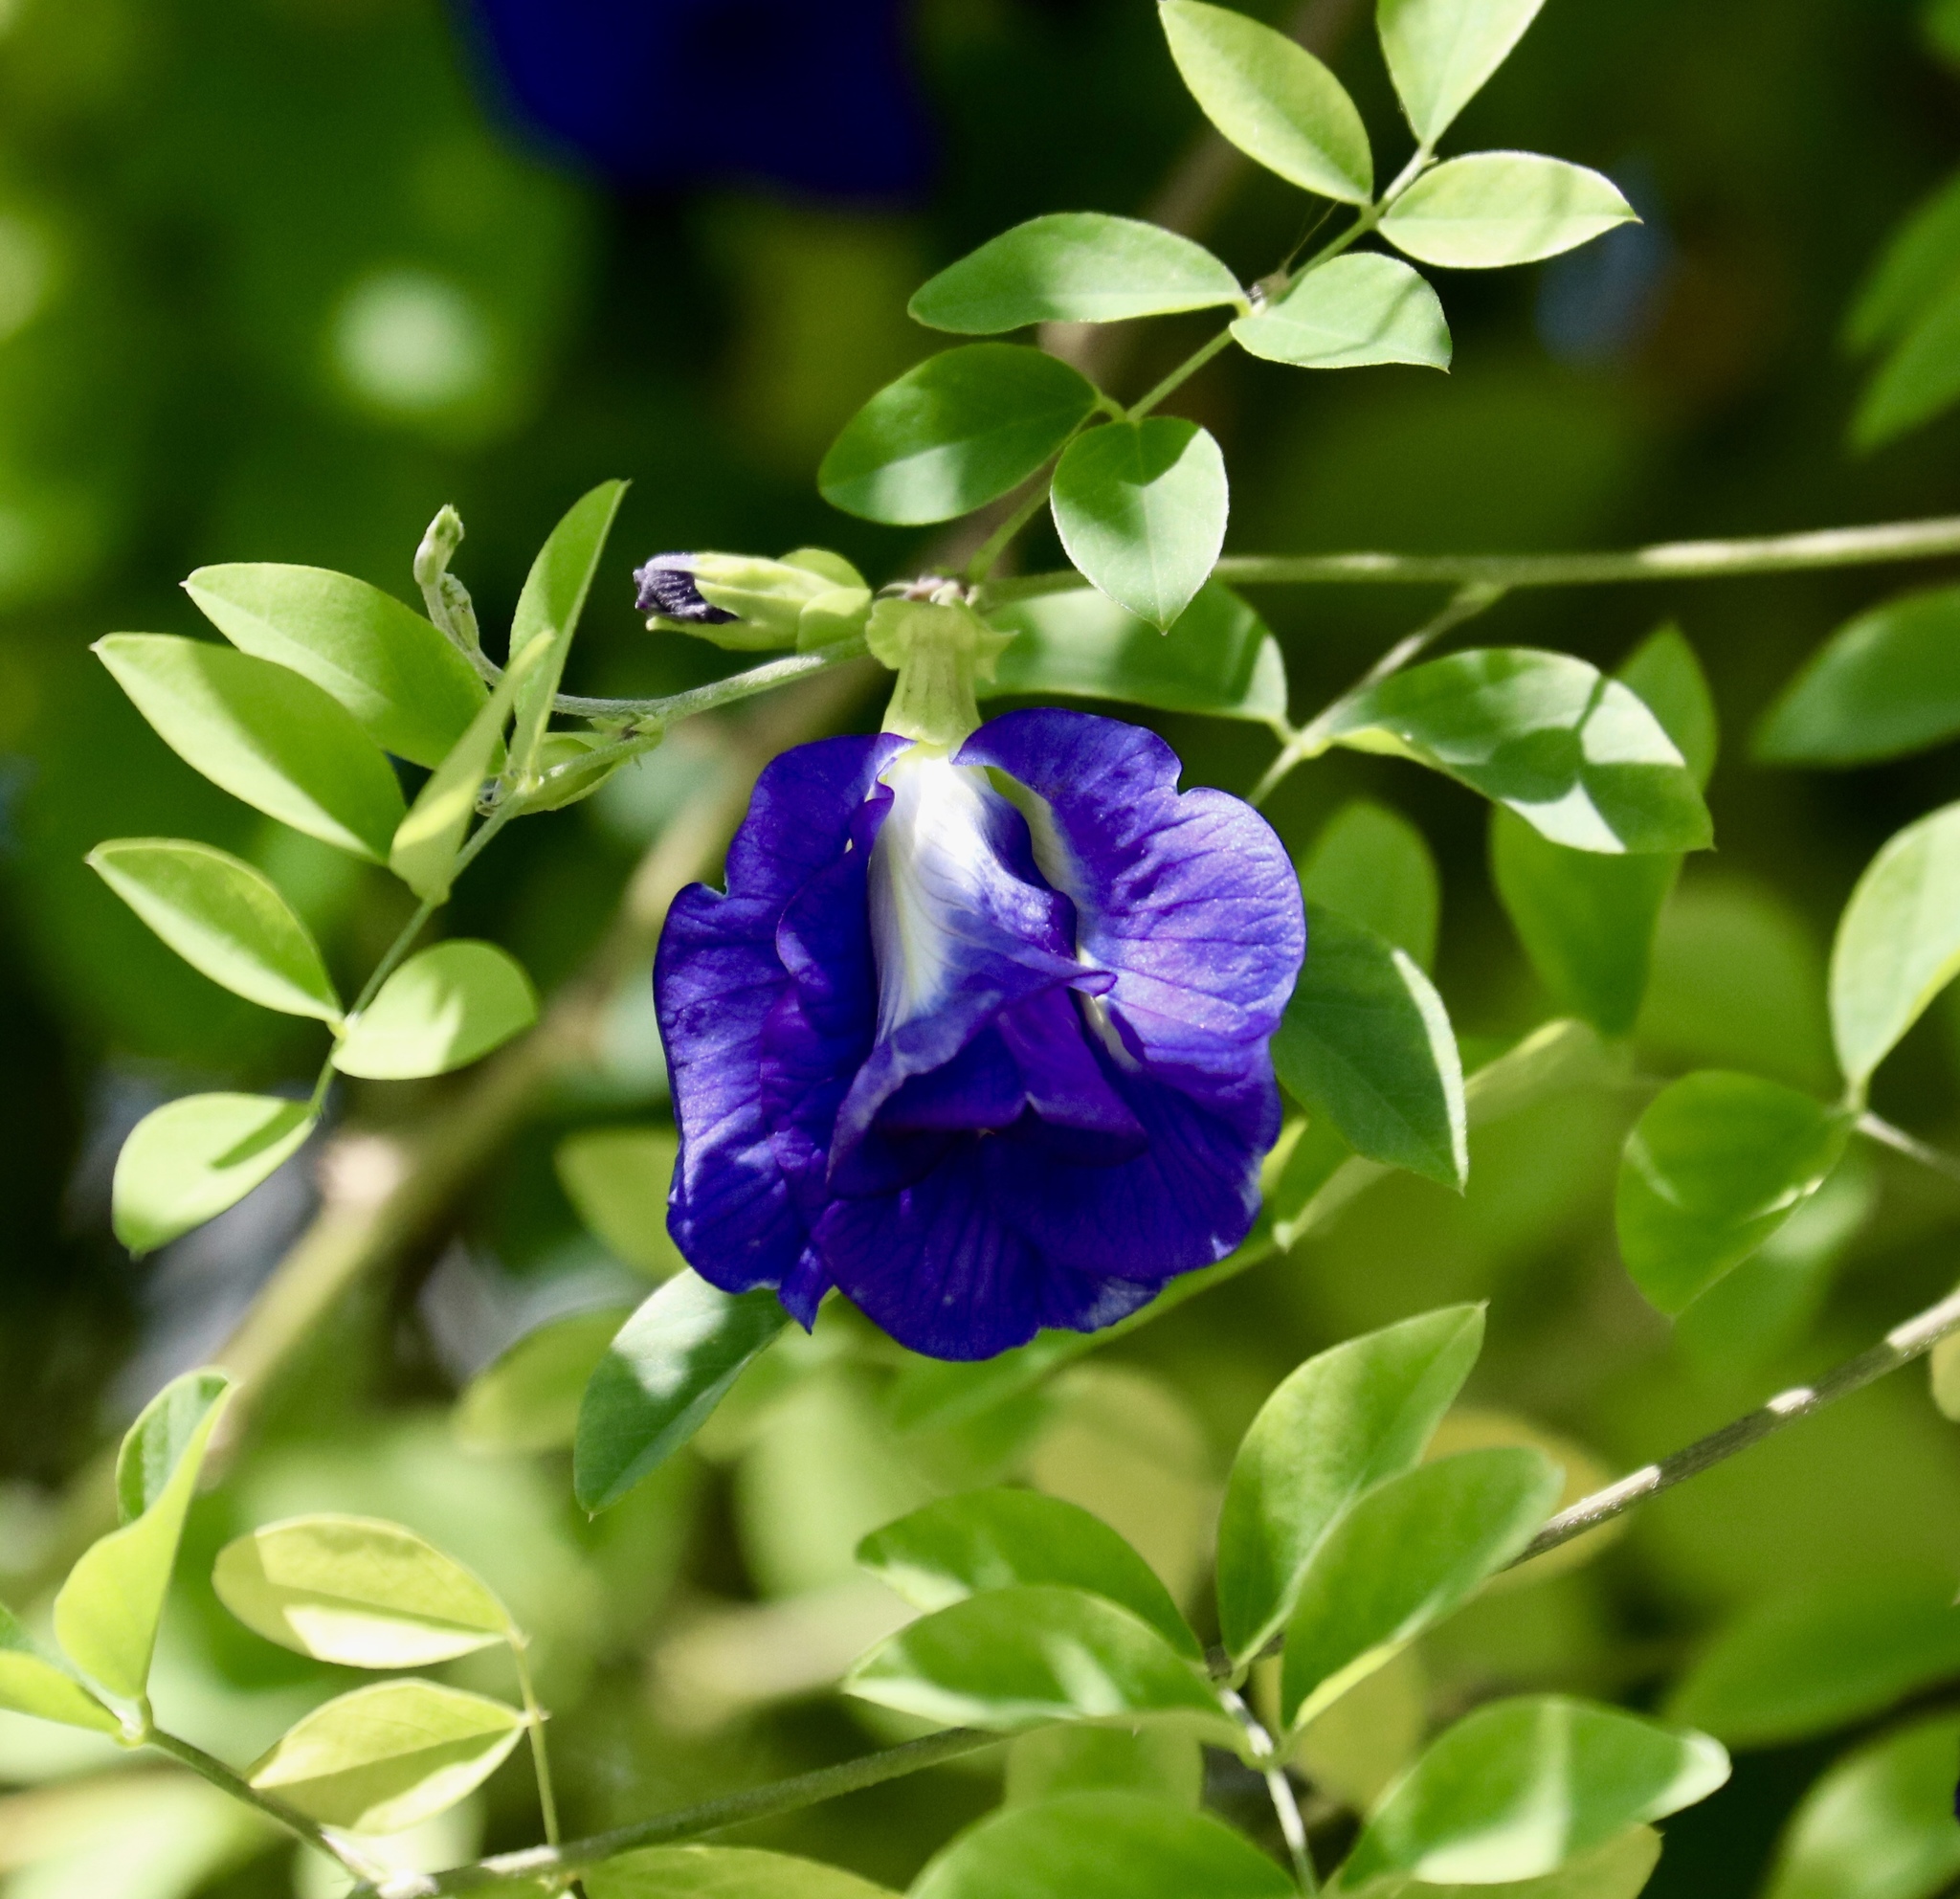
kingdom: Plantae
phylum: Tracheophyta
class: Magnoliopsida
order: Fabales
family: Fabaceae
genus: Clitoria
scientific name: Clitoria ternatea
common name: Asian pigeonwings
